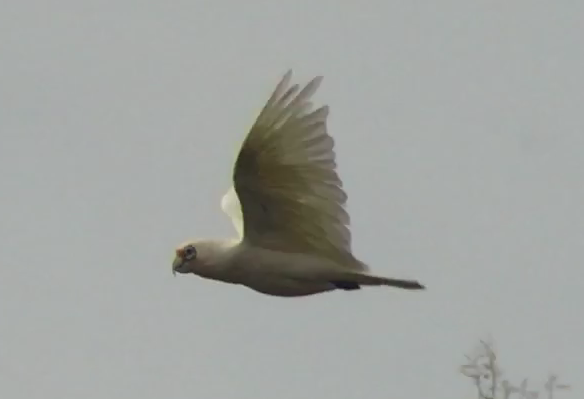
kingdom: Animalia
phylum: Chordata
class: Aves
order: Psittaciformes
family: Psittacidae
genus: Cacatua
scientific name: Cacatua tenuirostris
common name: Long-billed corella
